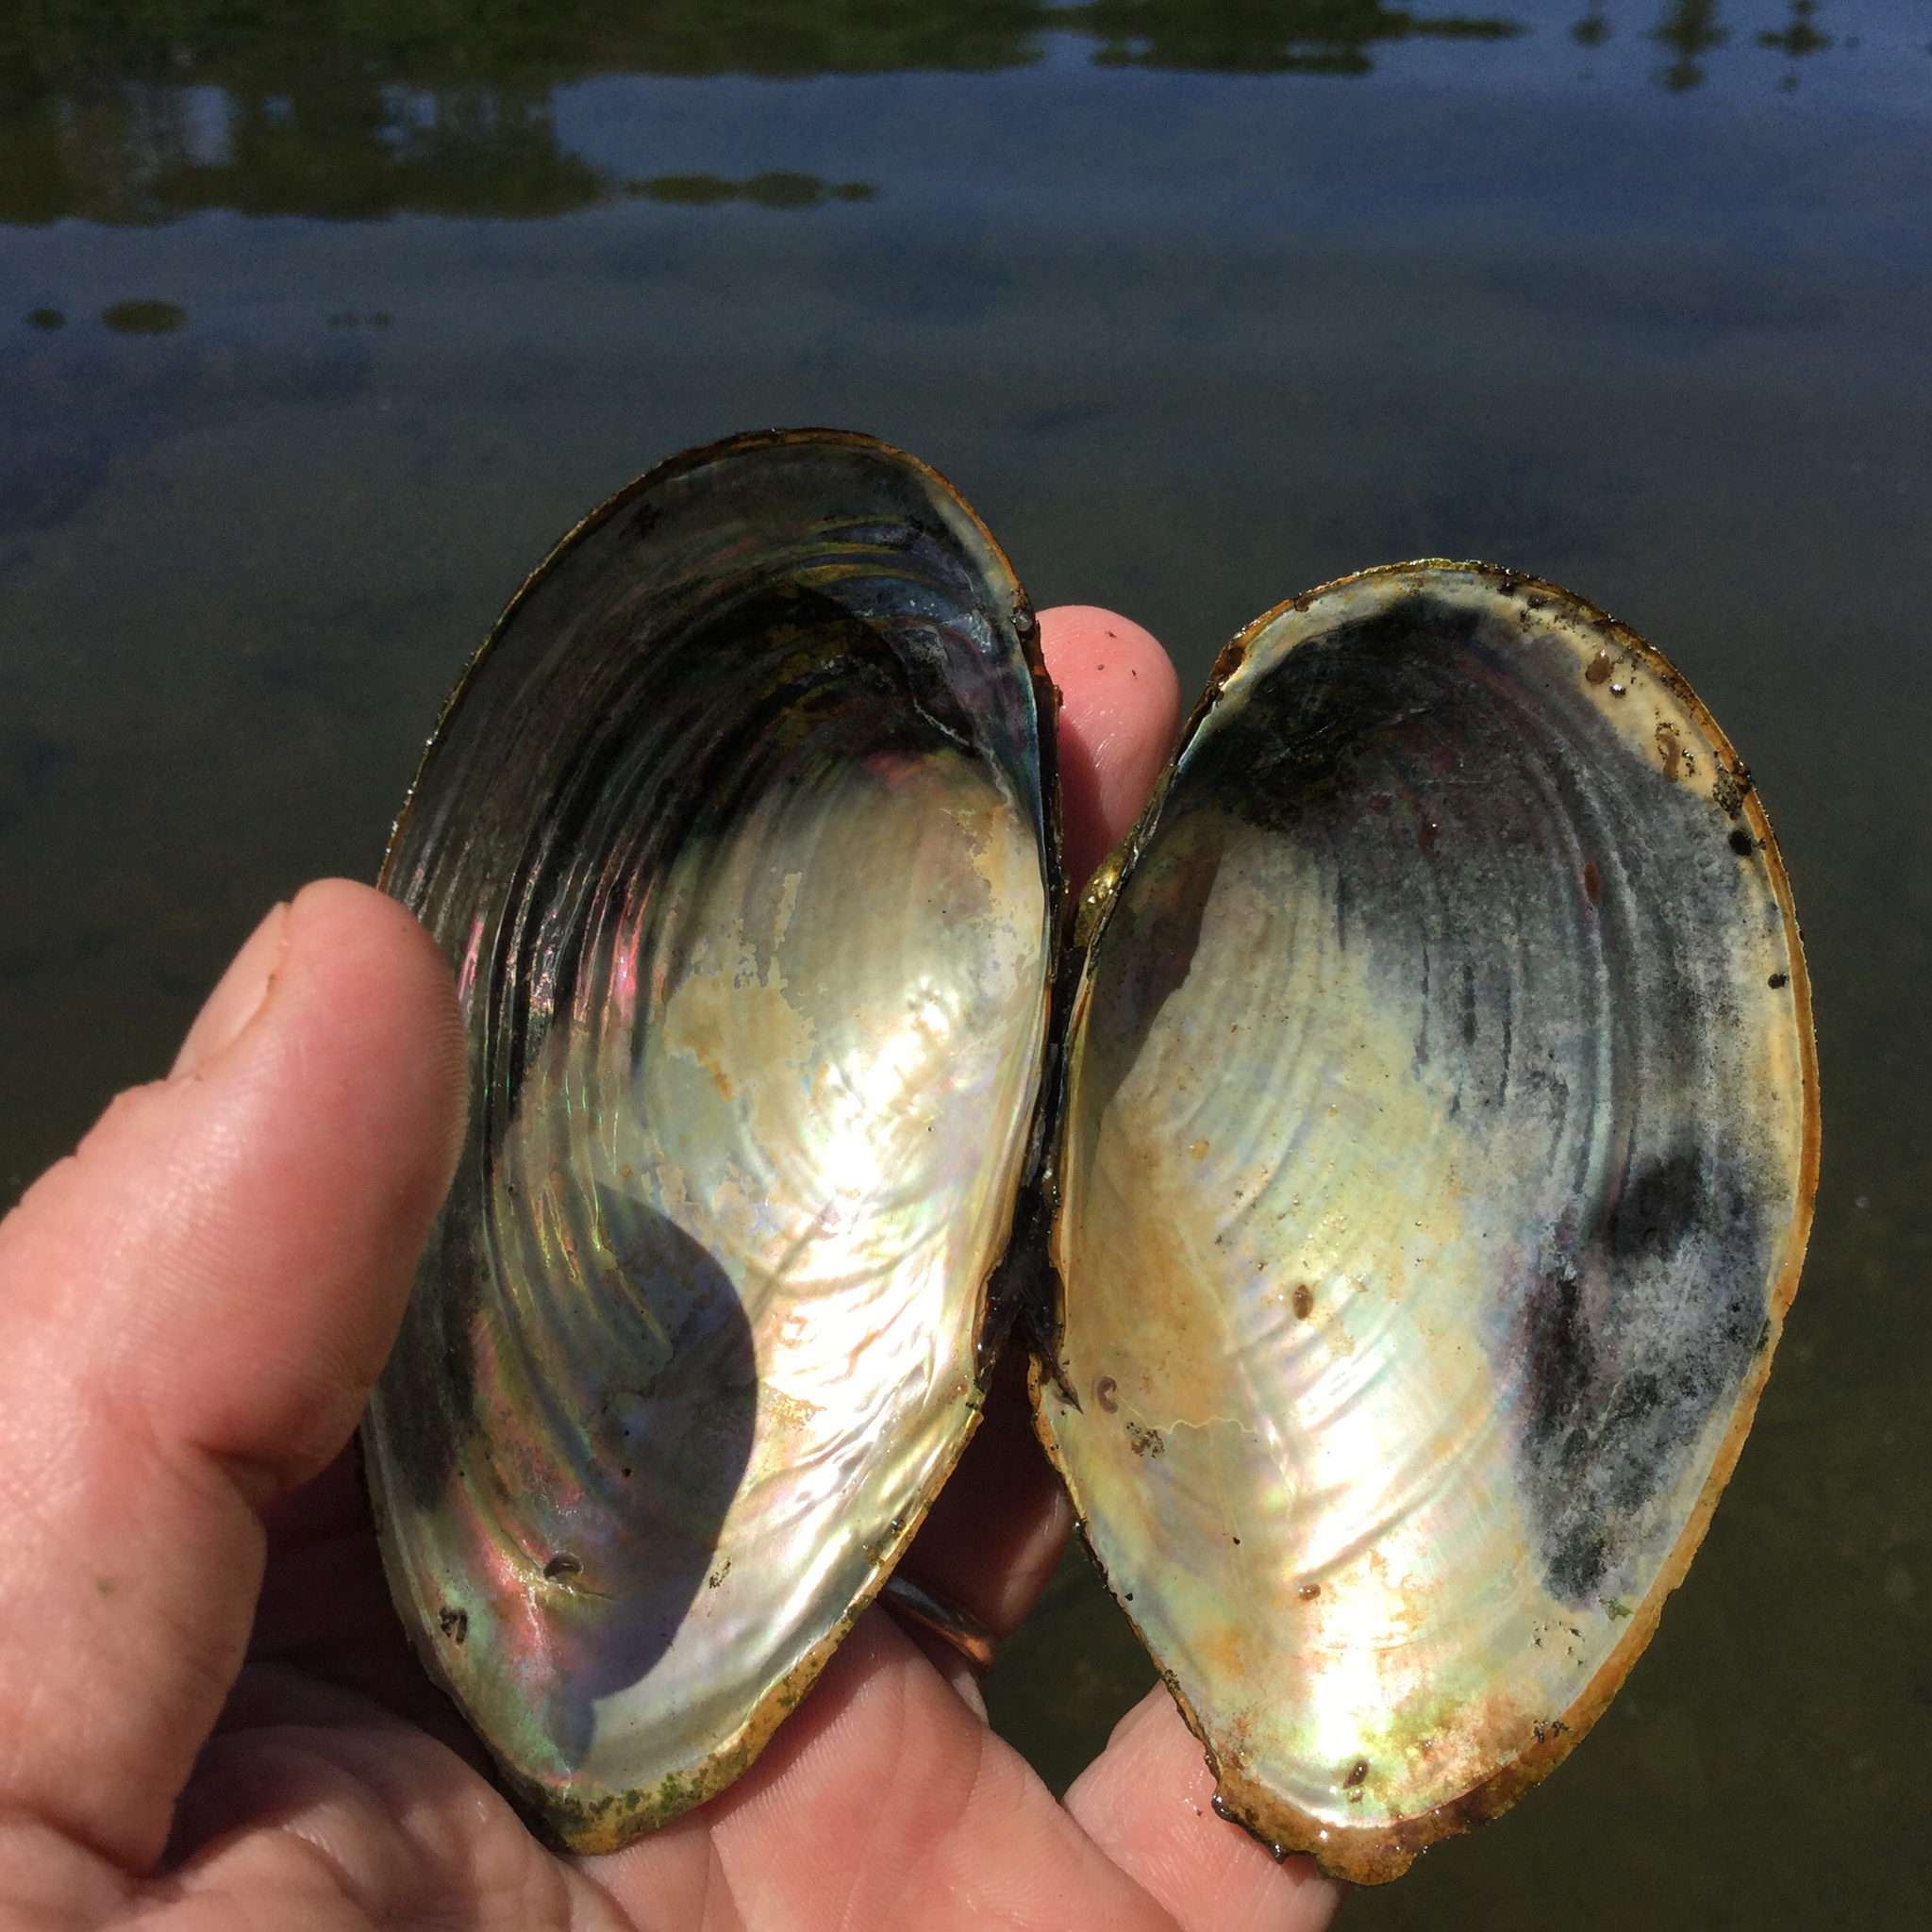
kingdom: Animalia
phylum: Mollusca
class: Bivalvia
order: Unionida
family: Unionidae
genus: Pyganodon
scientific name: Pyganodon grandis
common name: Giant floater
